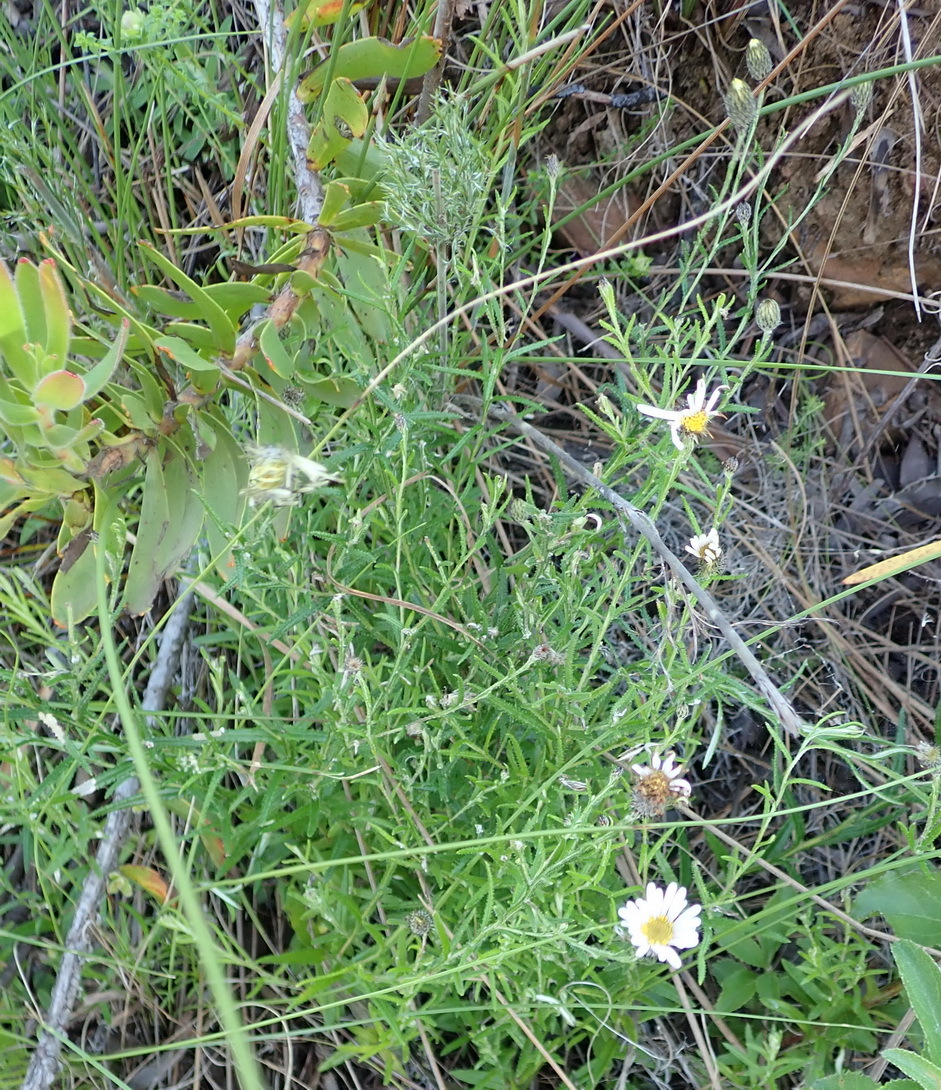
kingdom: Plantae
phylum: Tracheophyta
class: Magnoliopsida
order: Asterales
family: Asteraceae
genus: Athrixia
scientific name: Athrixia heterophylla
